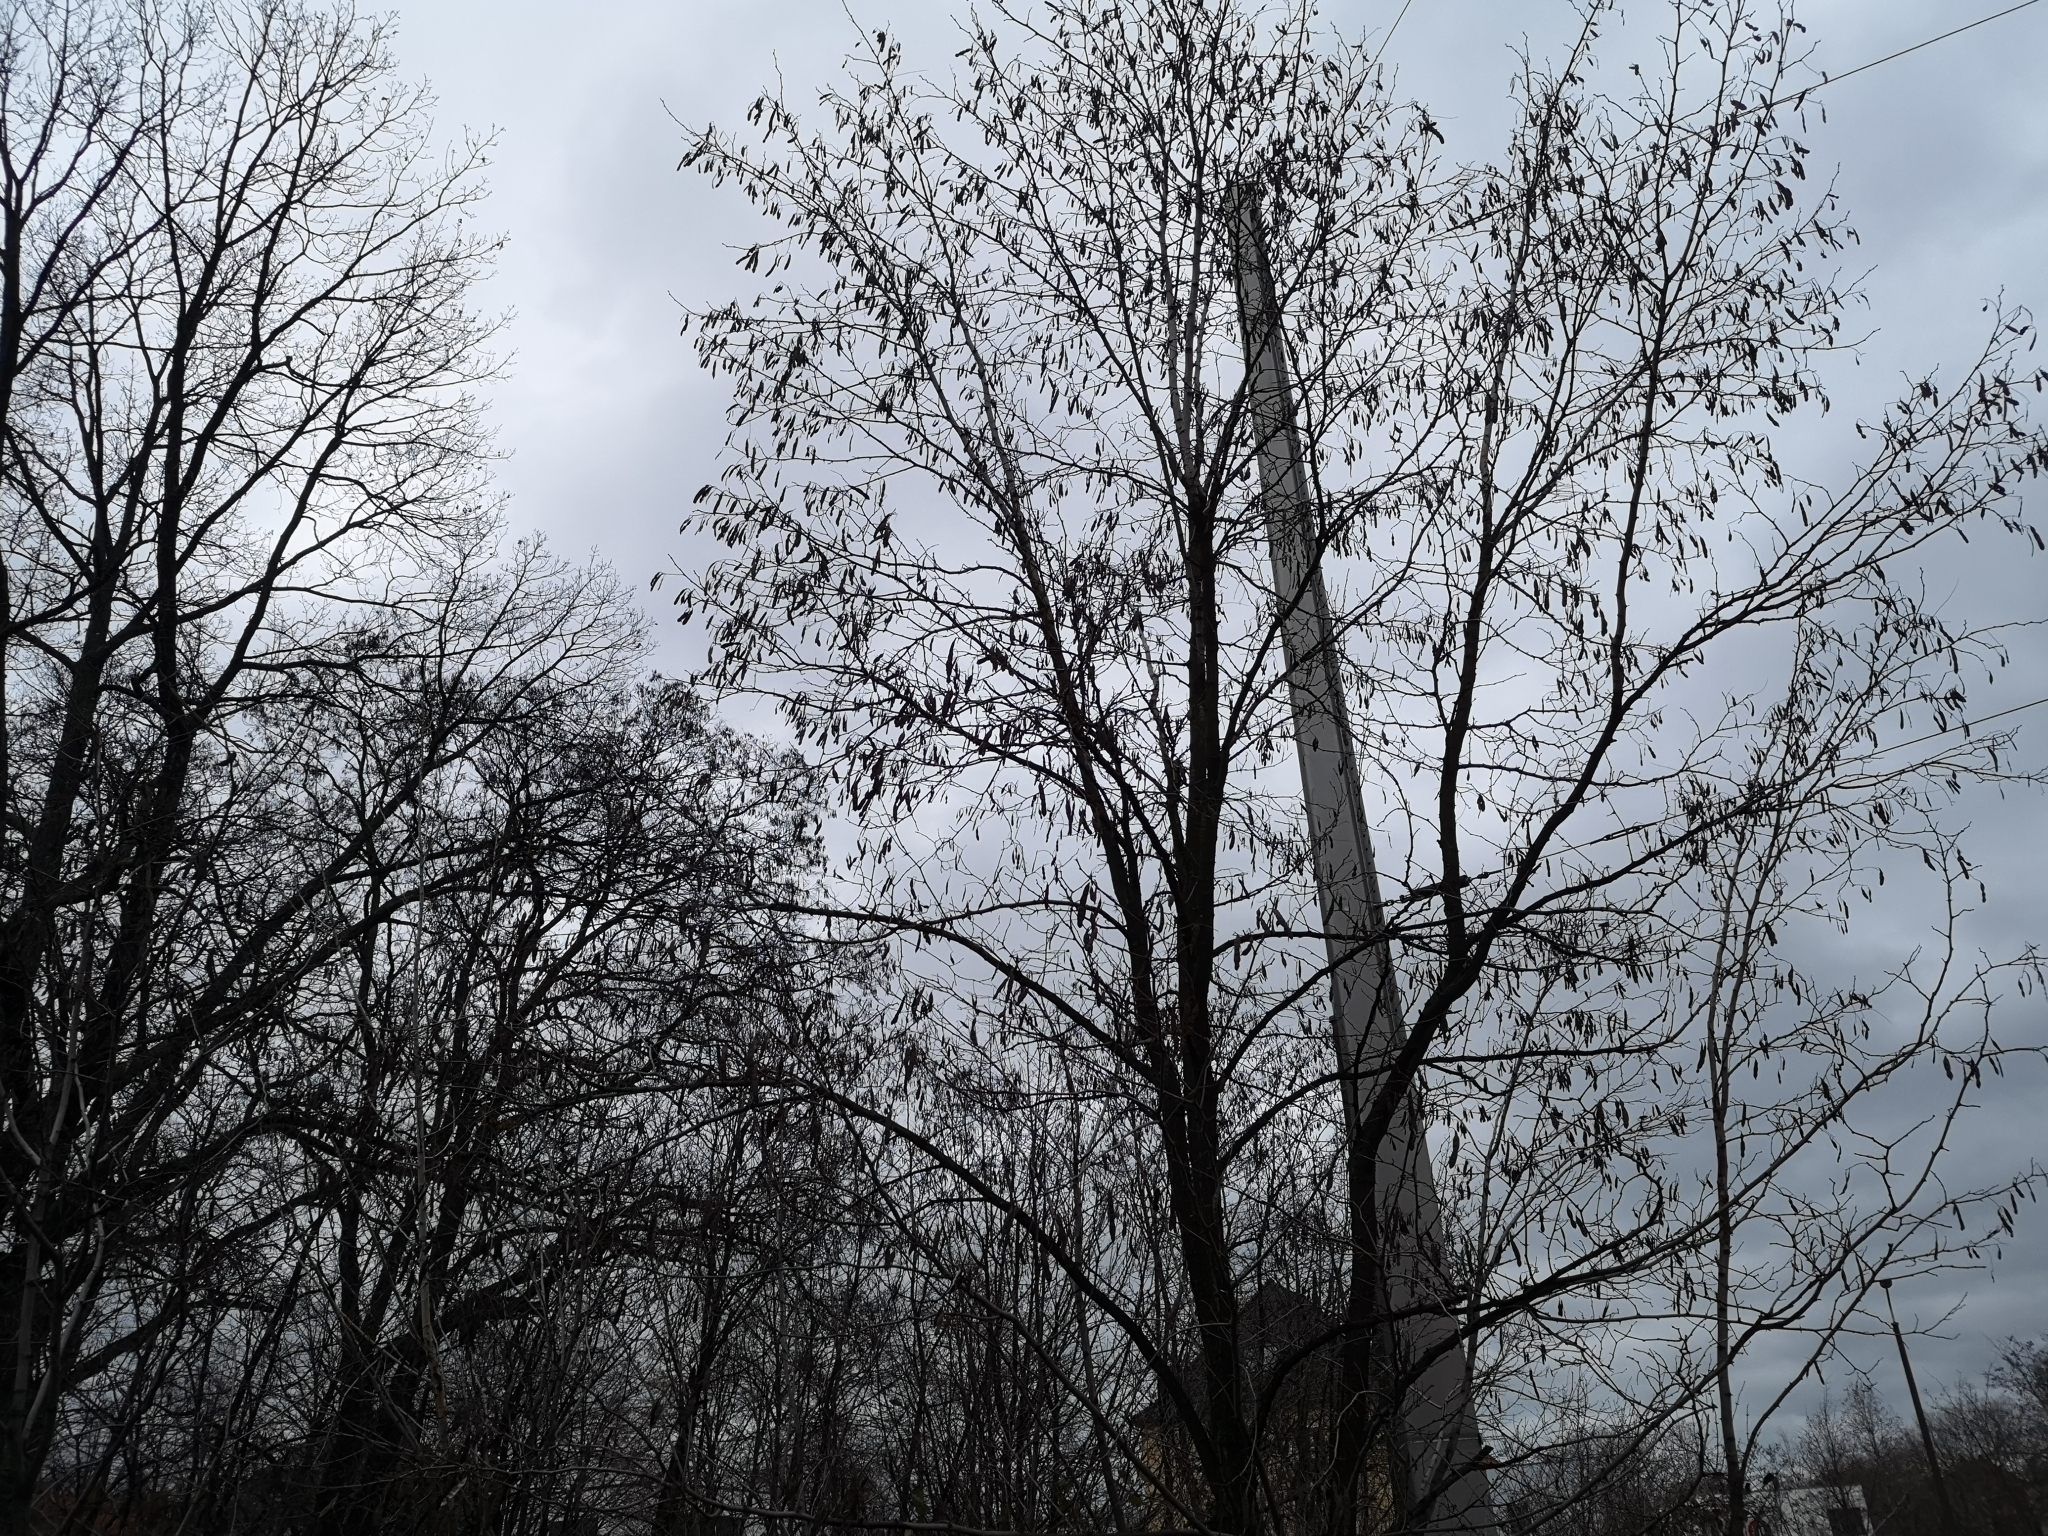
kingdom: Plantae
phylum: Tracheophyta
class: Magnoliopsida
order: Fabales
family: Fabaceae
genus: Robinia
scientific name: Robinia pseudoacacia
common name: Black locust
